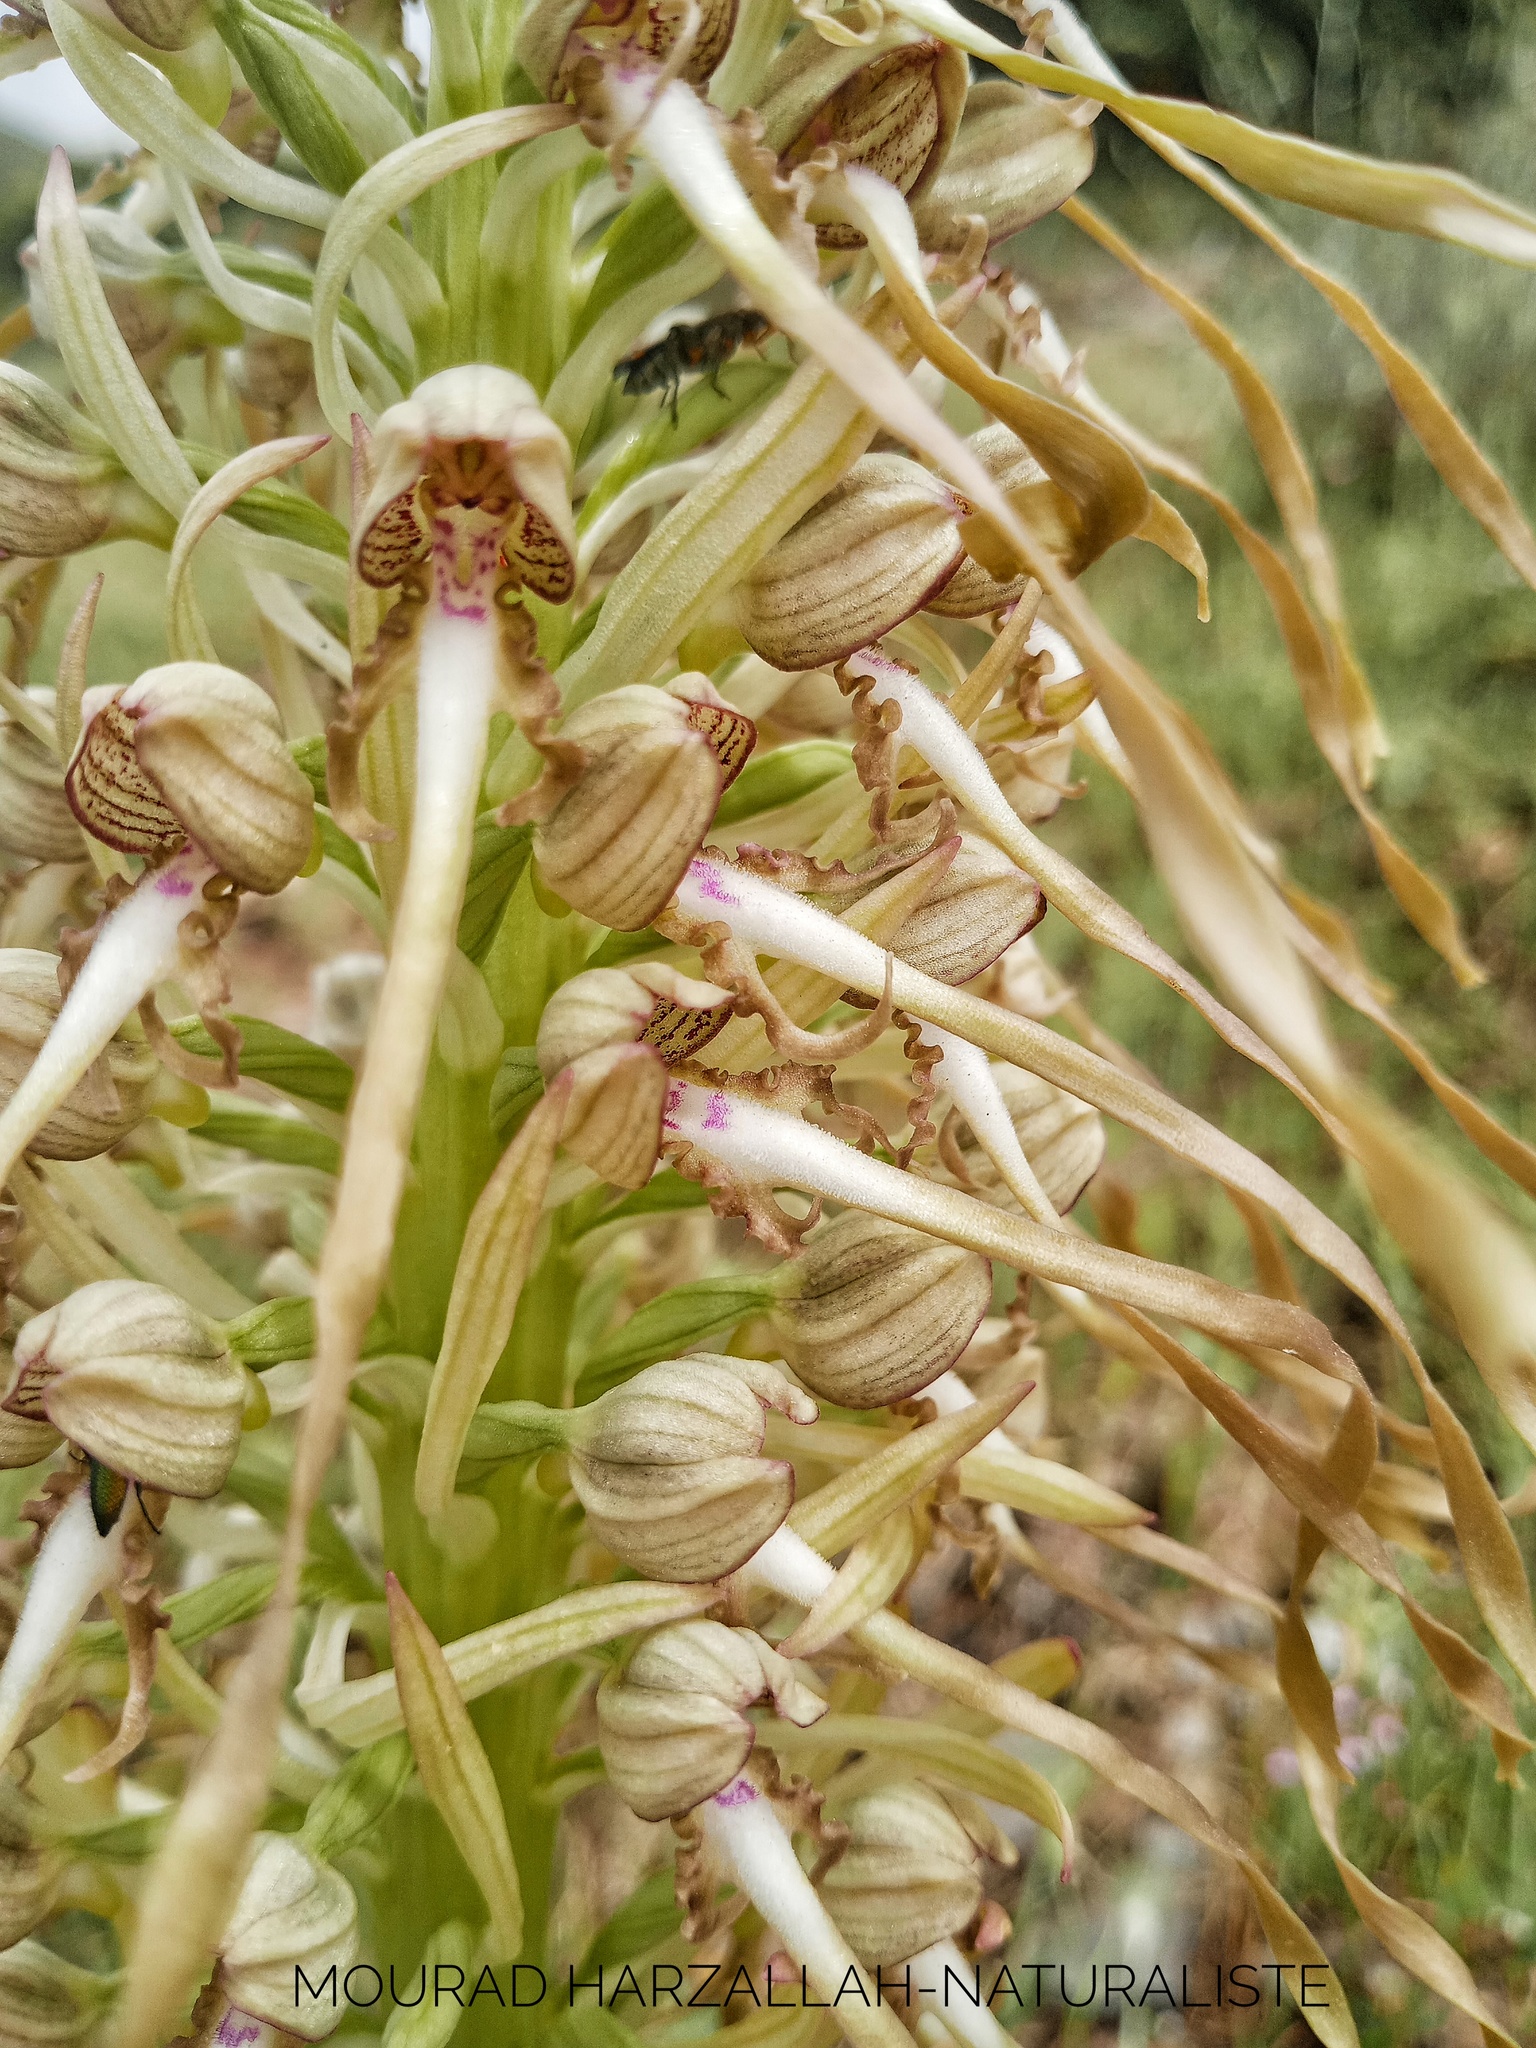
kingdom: Plantae
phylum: Tracheophyta
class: Liliopsida
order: Asparagales
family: Orchidaceae
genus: Himantoglossum
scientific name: Himantoglossum hircinum
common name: Lizard orchid
